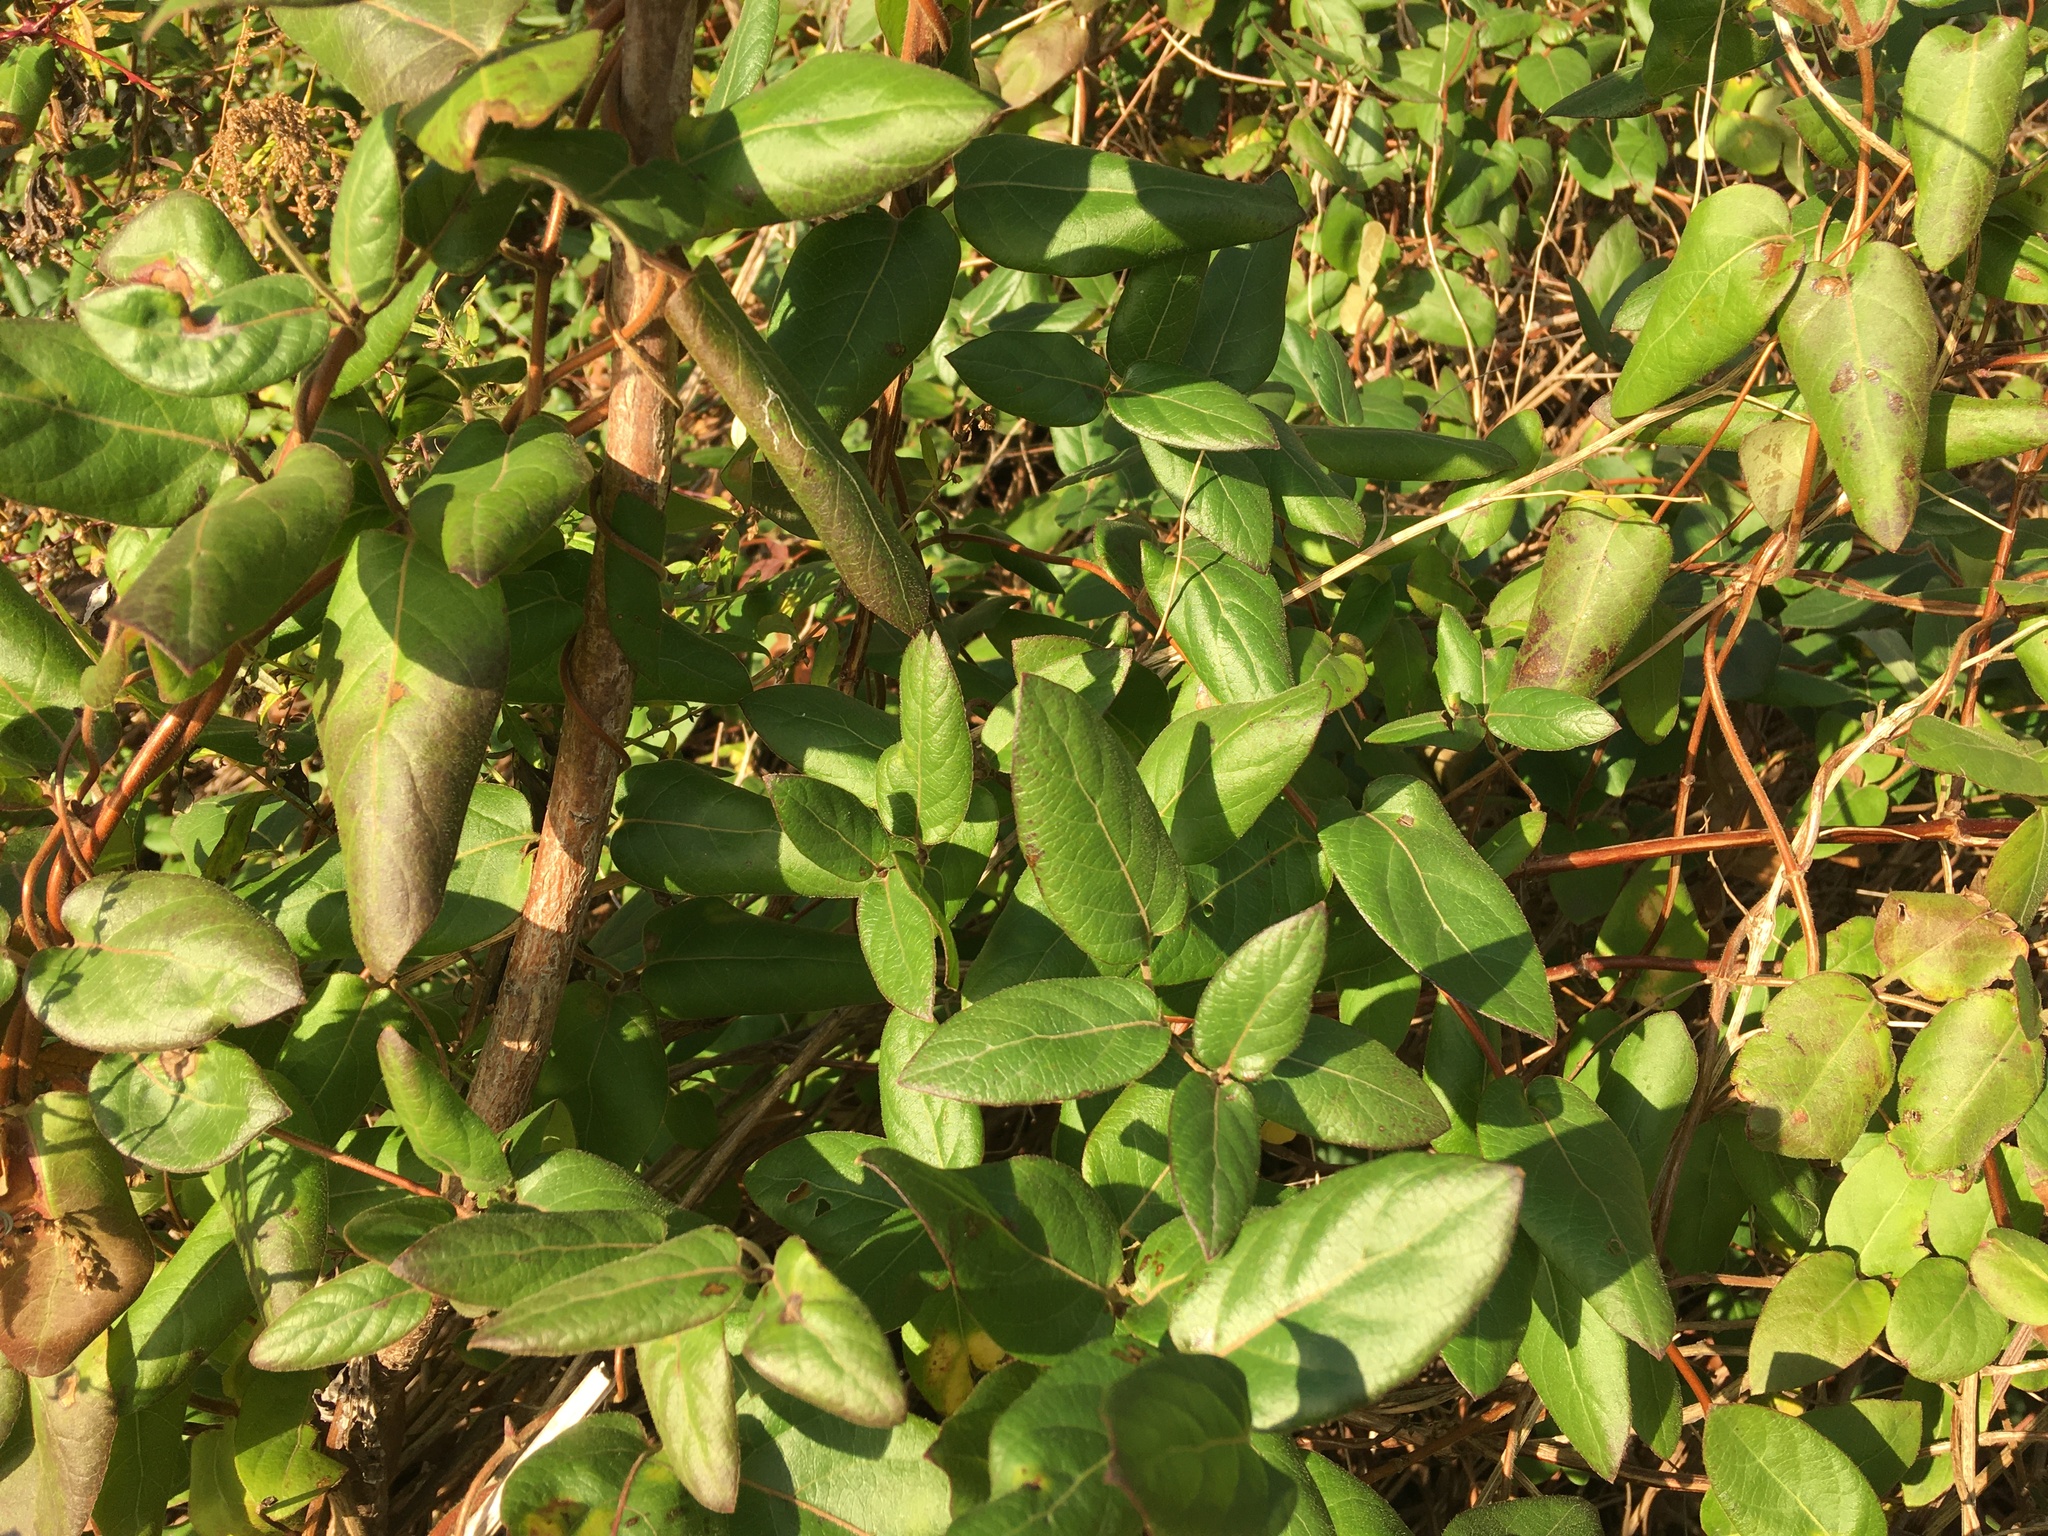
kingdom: Plantae
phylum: Tracheophyta
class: Magnoliopsida
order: Dipsacales
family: Caprifoliaceae
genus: Lonicera
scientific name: Lonicera japonica
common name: Japanese honeysuckle
